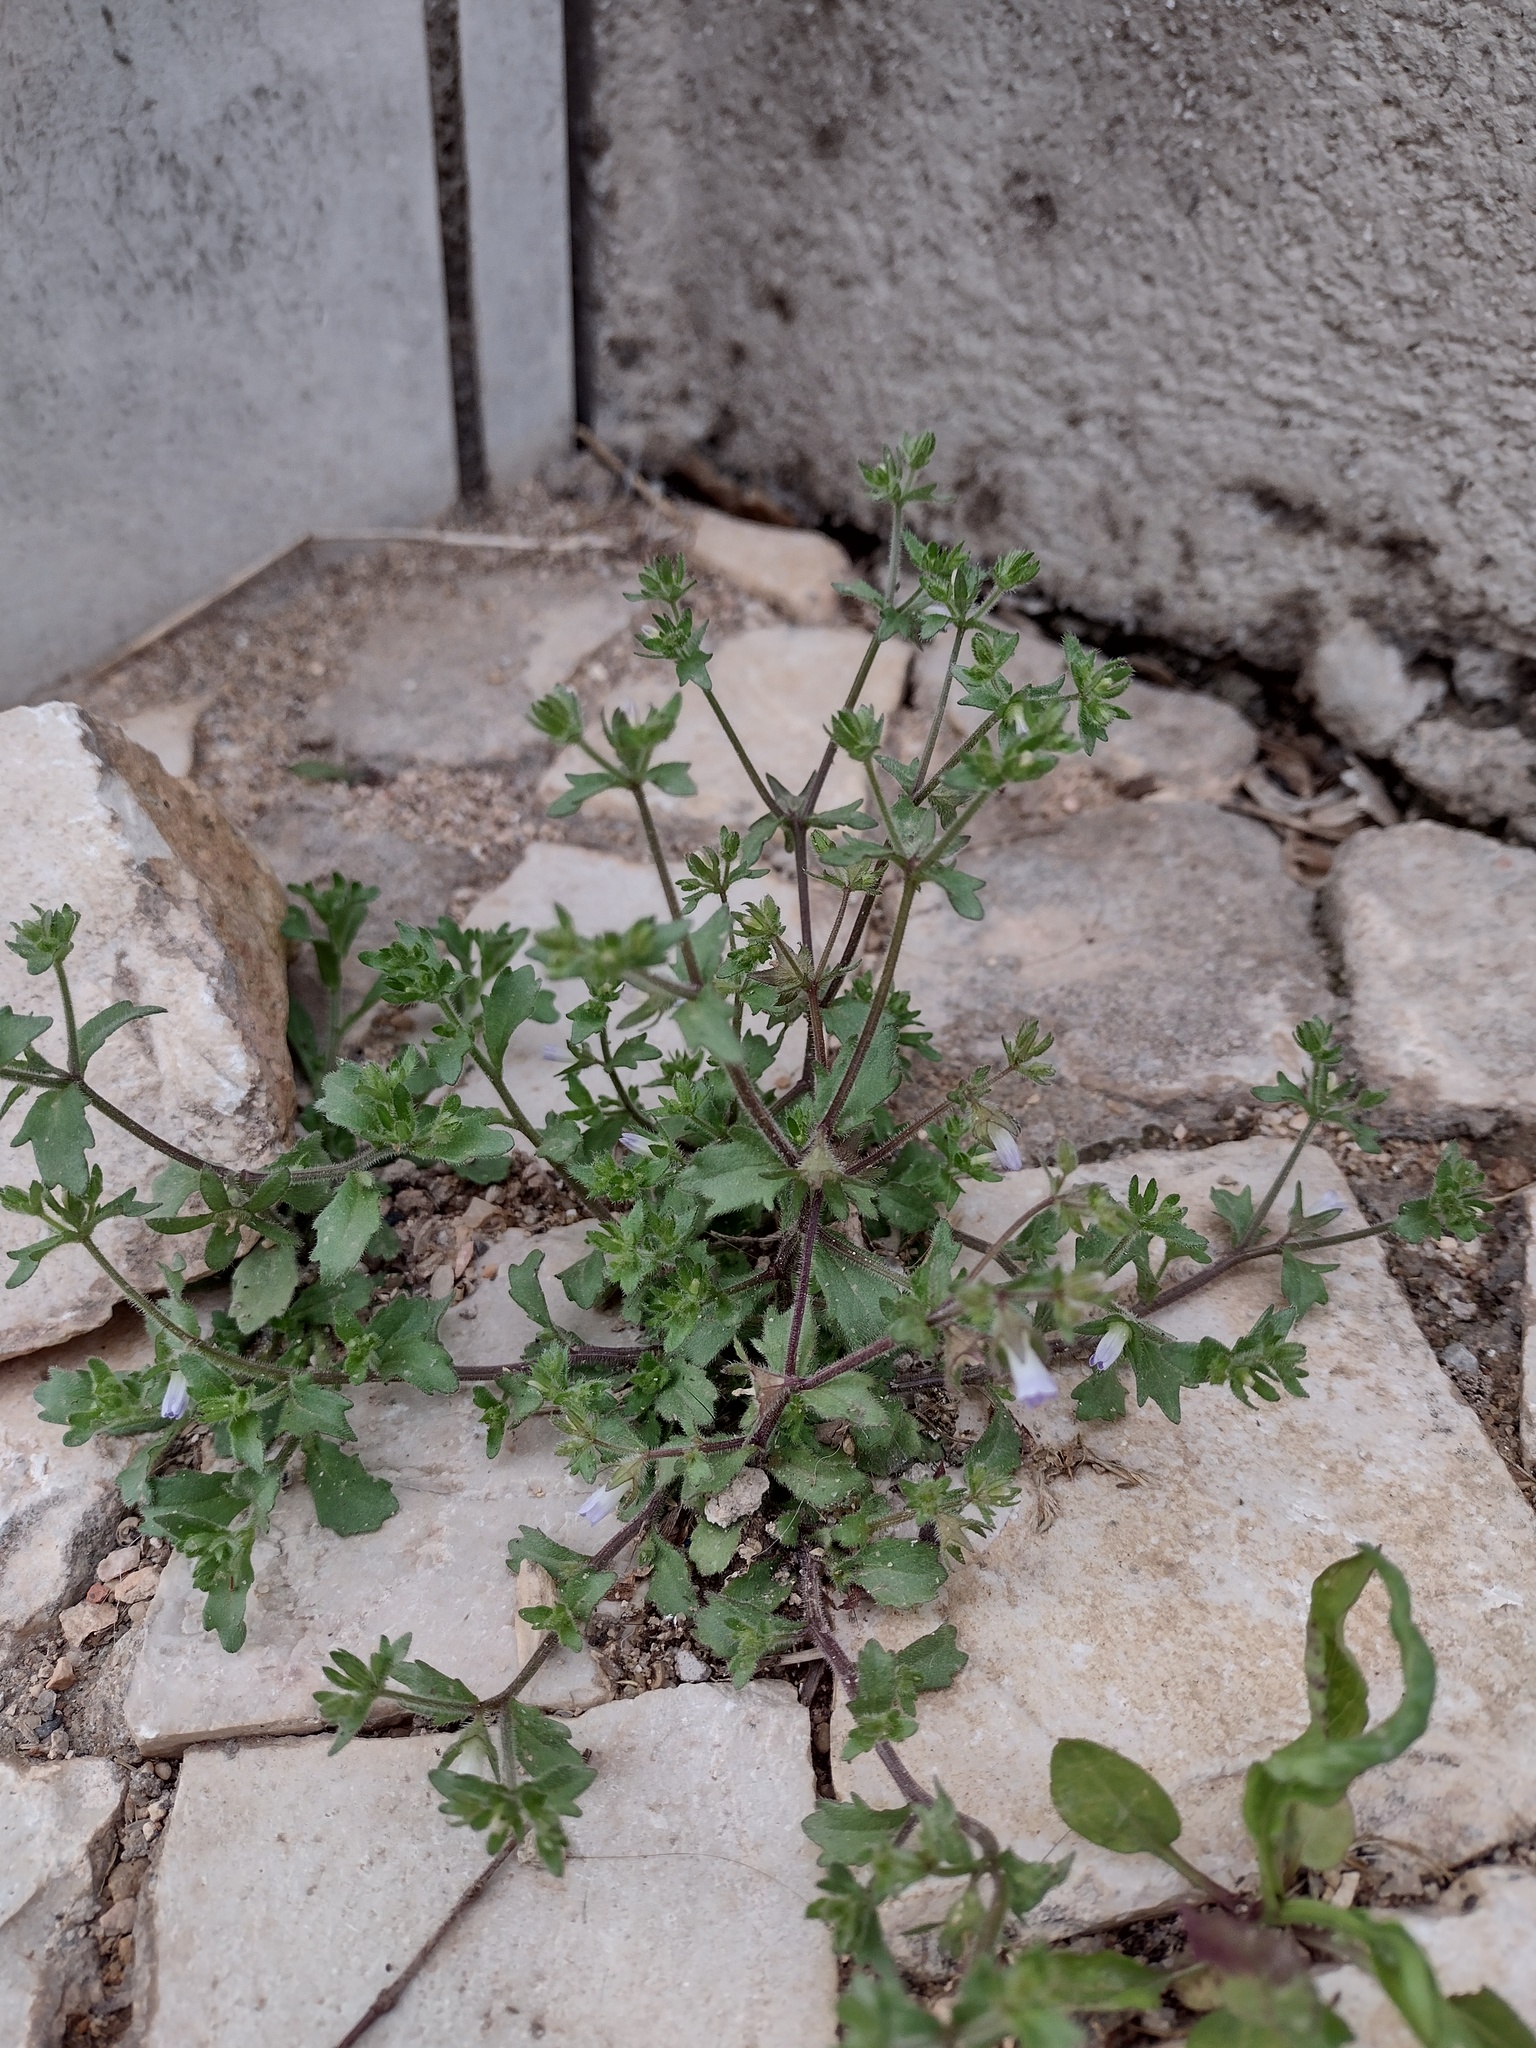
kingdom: Plantae
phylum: Tracheophyta
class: Magnoliopsida
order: Asterales
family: Campanulaceae
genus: Campanula
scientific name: Campanula erinus
